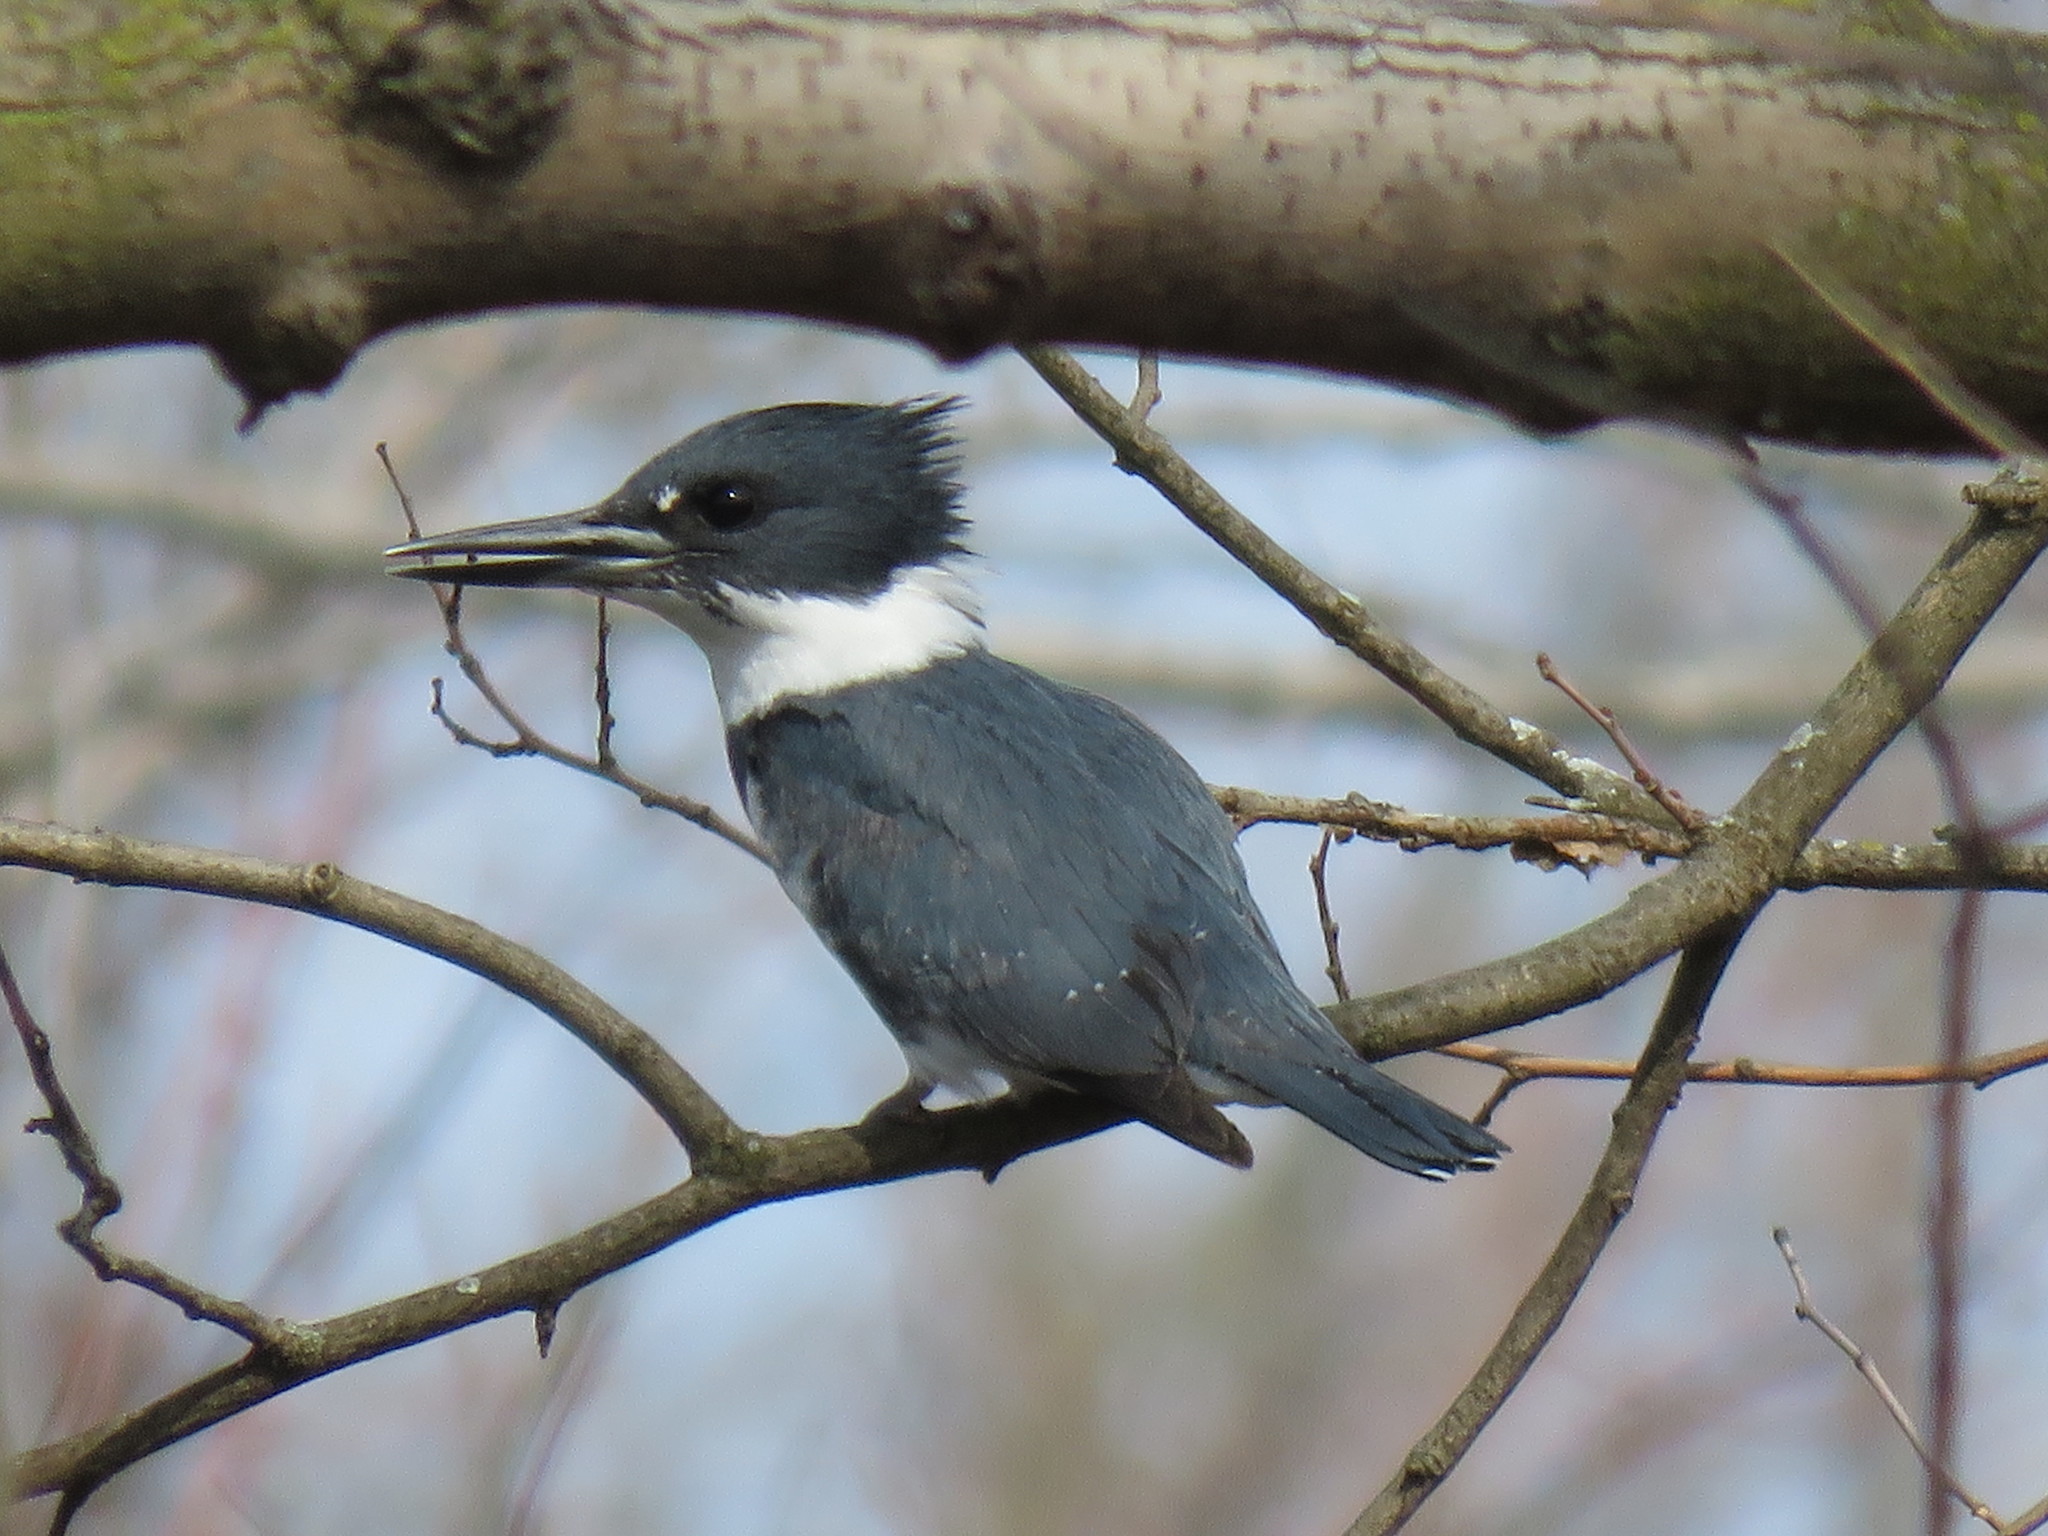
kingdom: Animalia
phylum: Chordata
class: Aves
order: Coraciiformes
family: Alcedinidae
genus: Megaceryle
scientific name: Megaceryle alcyon
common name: Belted kingfisher
